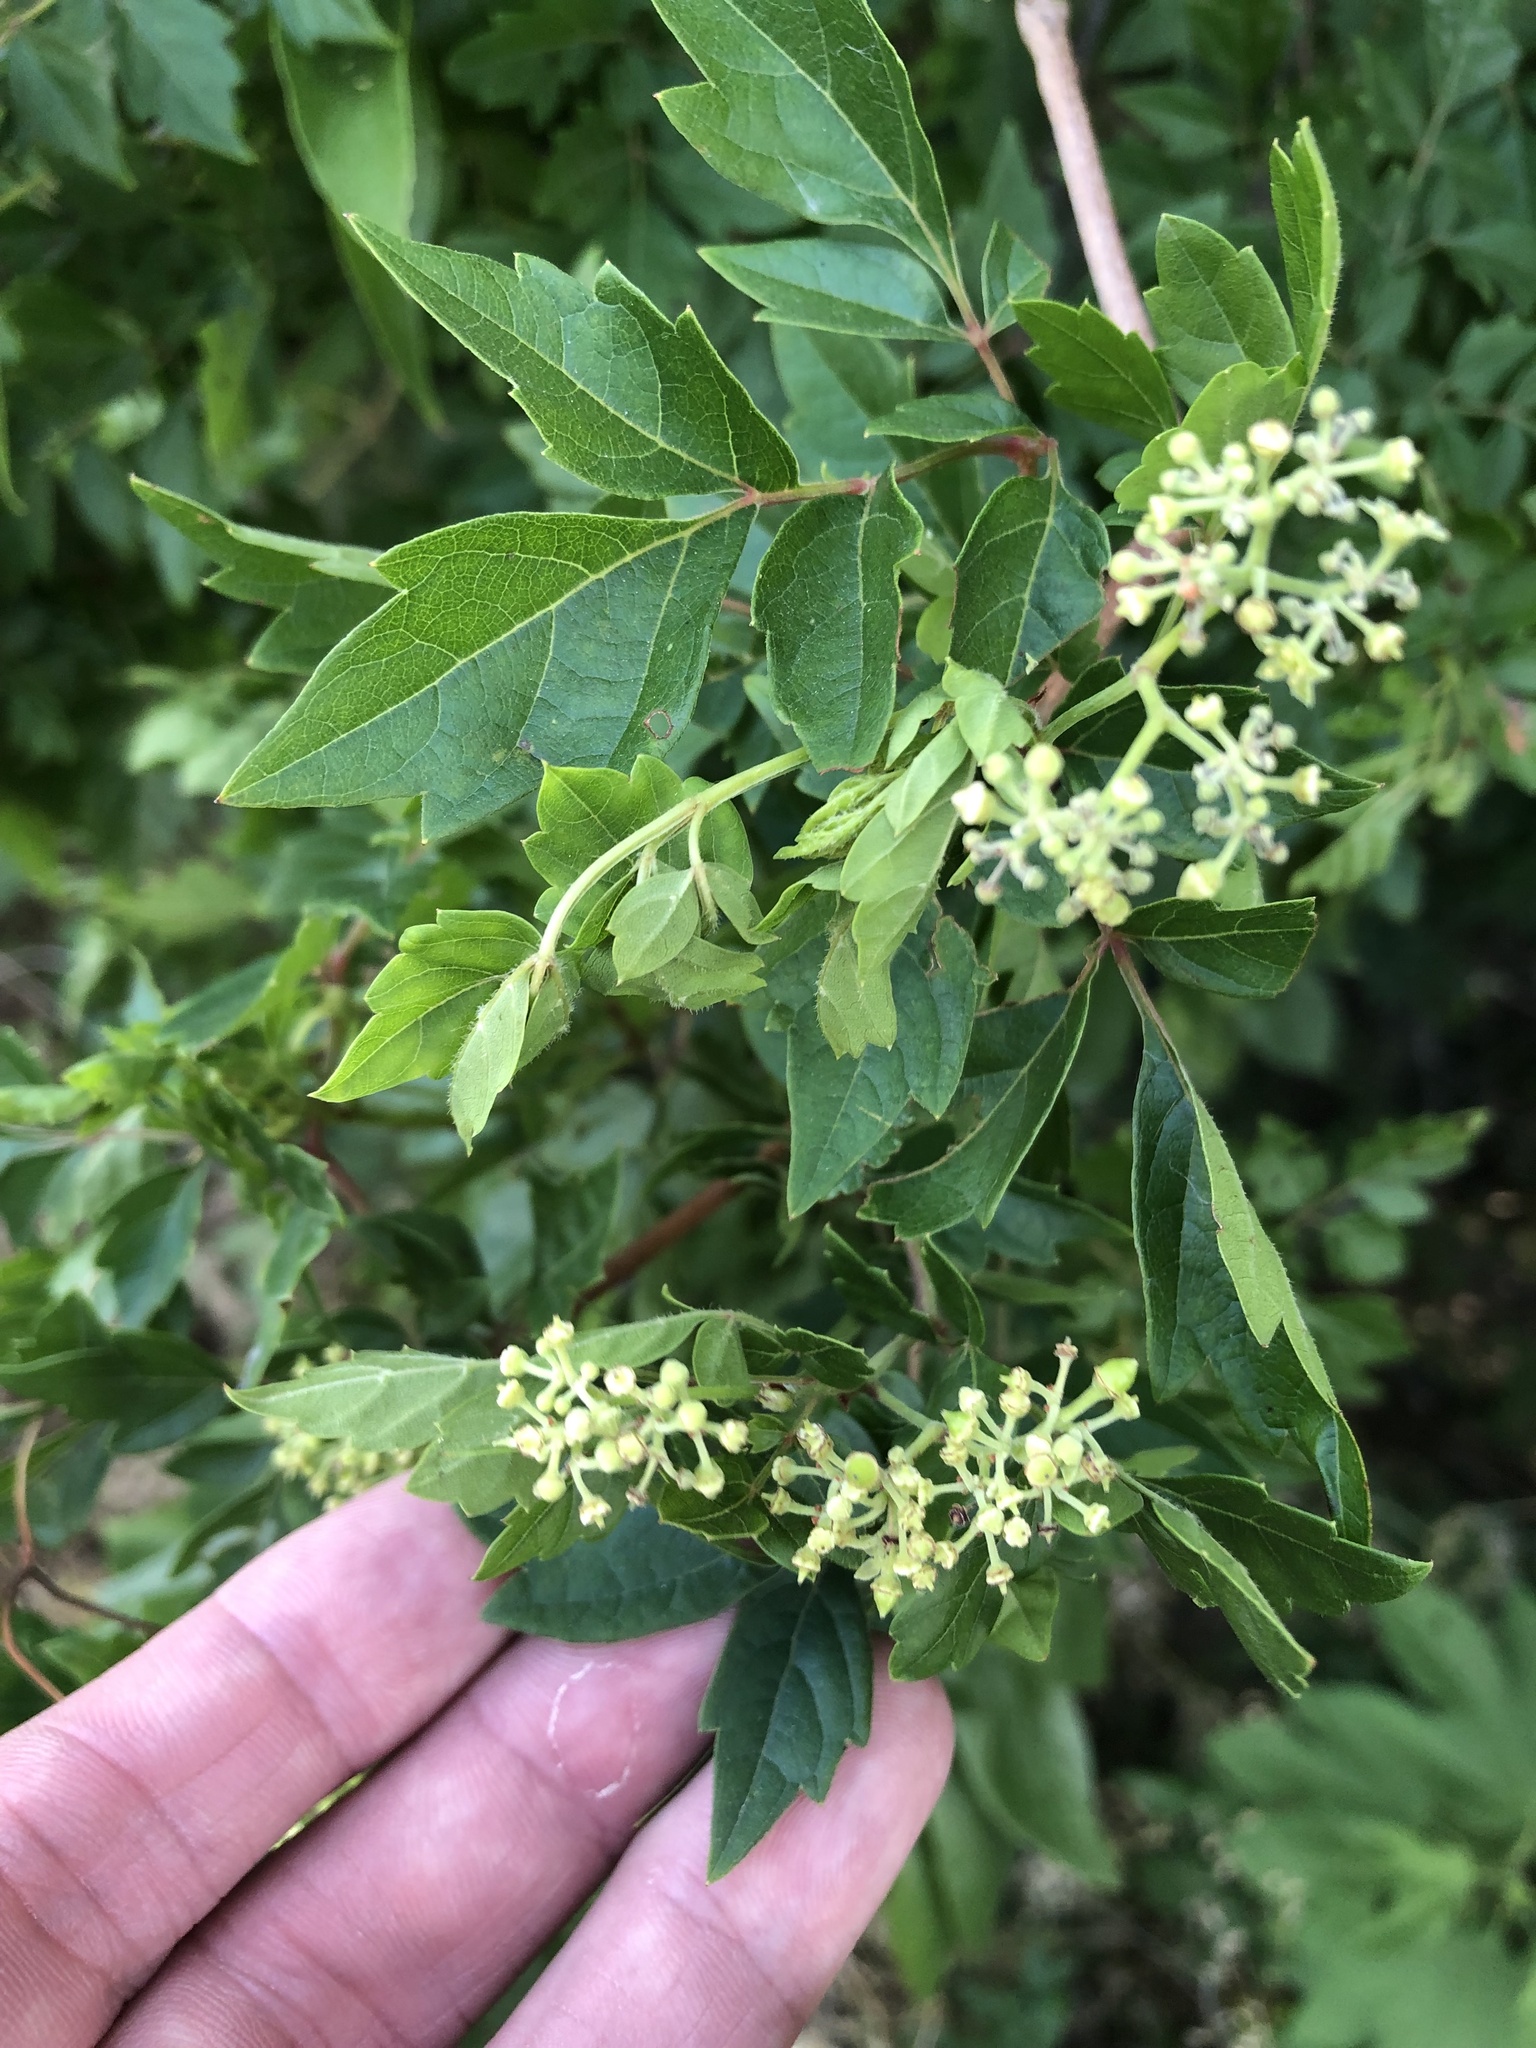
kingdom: Plantae
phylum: Tracheophyta
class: Magnoliopsida
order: Vitales
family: Vitaceae
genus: Nekemias
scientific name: Nekemias arborea
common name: Peppervine
